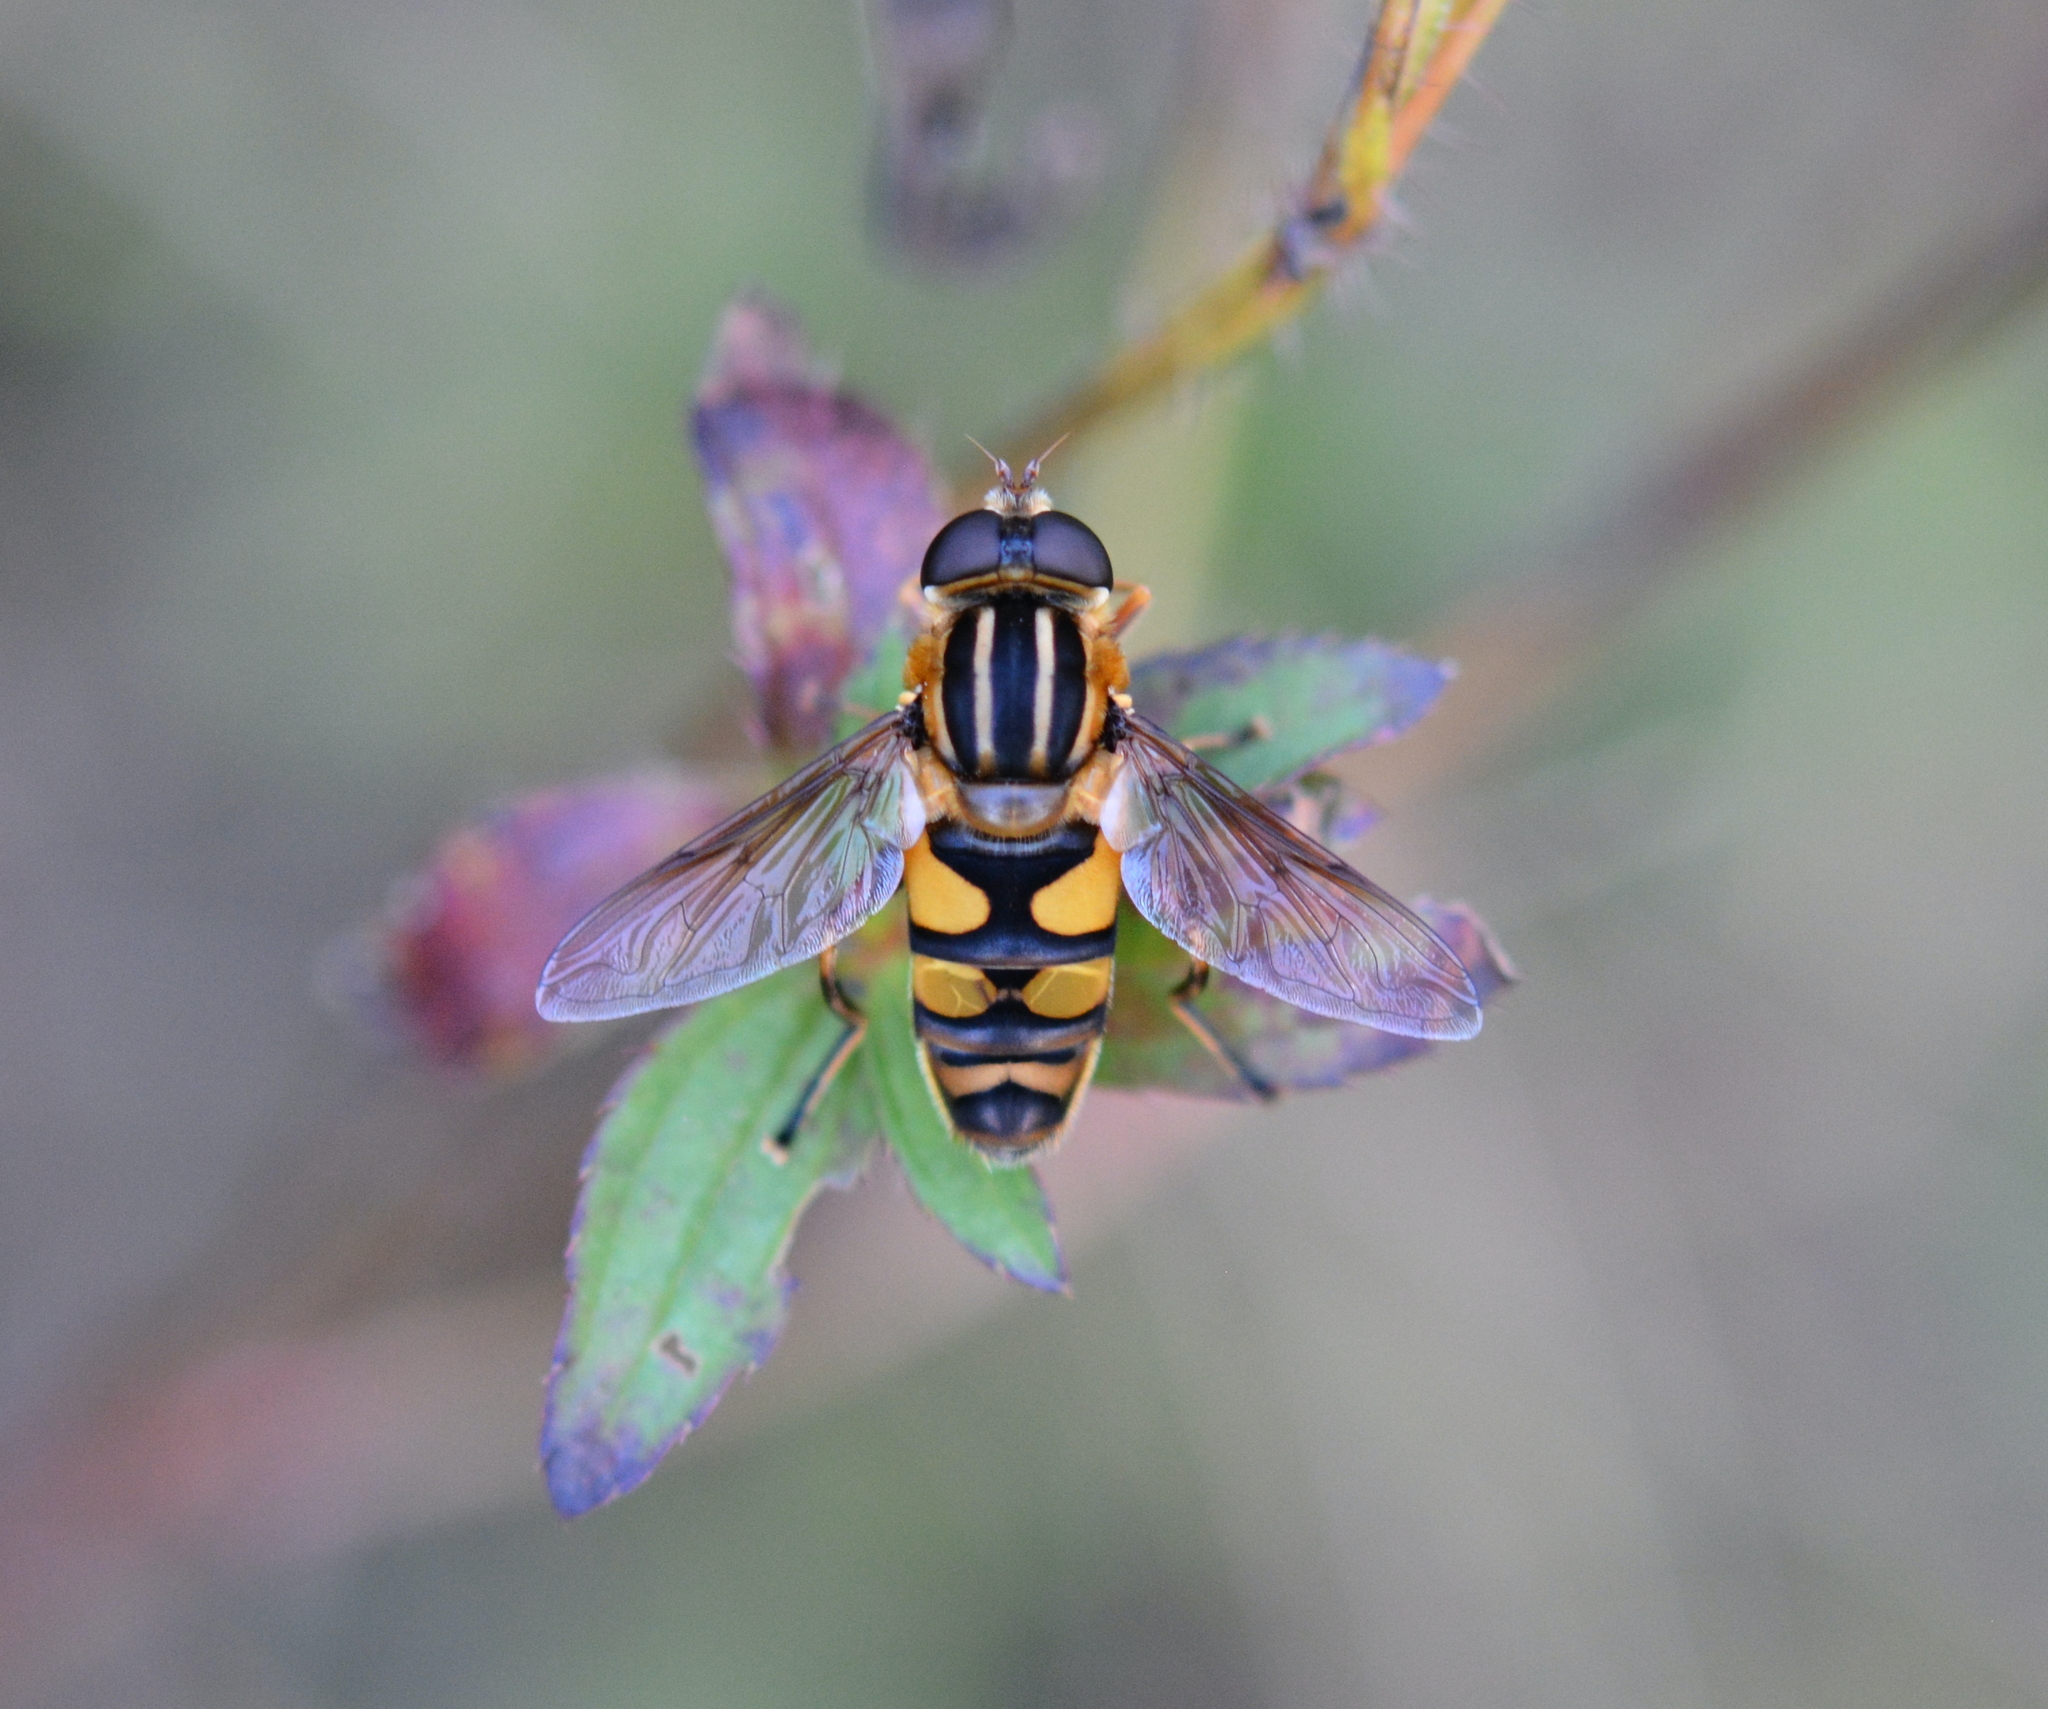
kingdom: Animalia
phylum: Arthropoda
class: Insecta
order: Diptera
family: Syrphidae
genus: Helophilus
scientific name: Helophilus fasciatus
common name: Narrow-headed marsh fly
